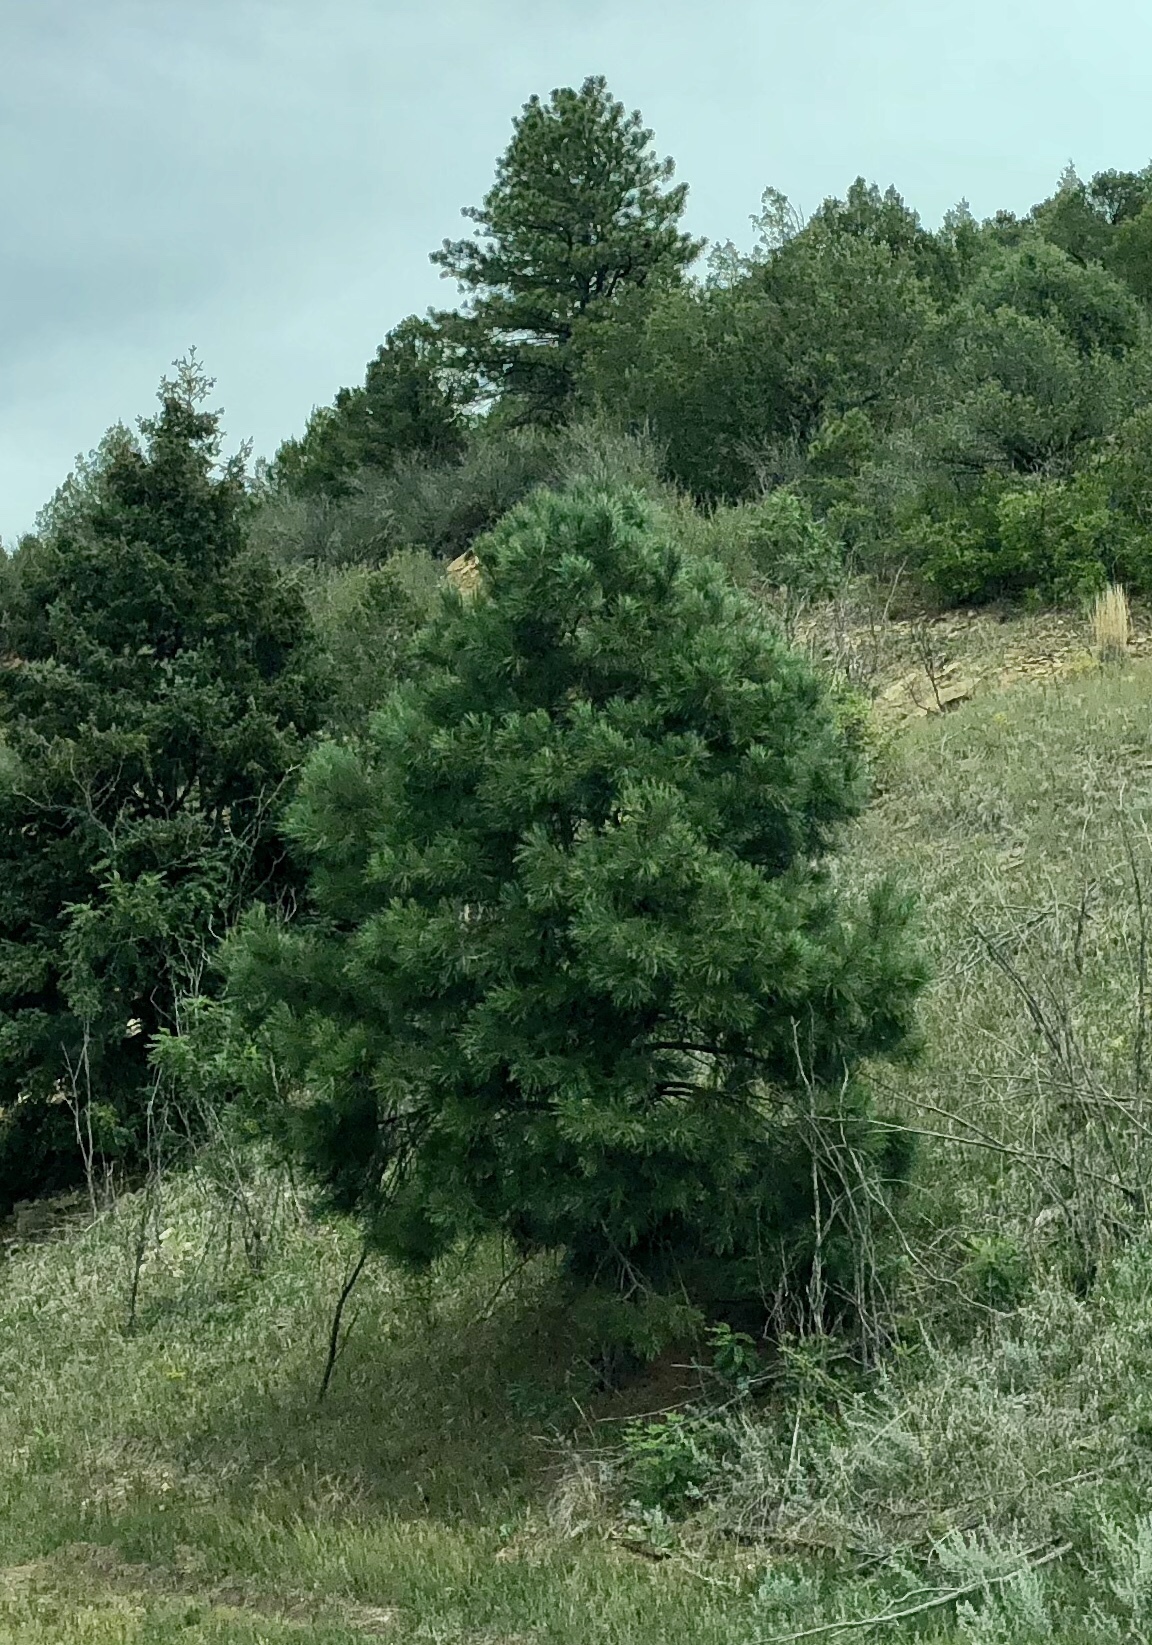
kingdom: Plantae
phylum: Tracheophyta
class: Pinopsida
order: Pinales
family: Pinaceae
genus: Pinus
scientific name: Pinus ponderosa
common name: Western yellow-pine
